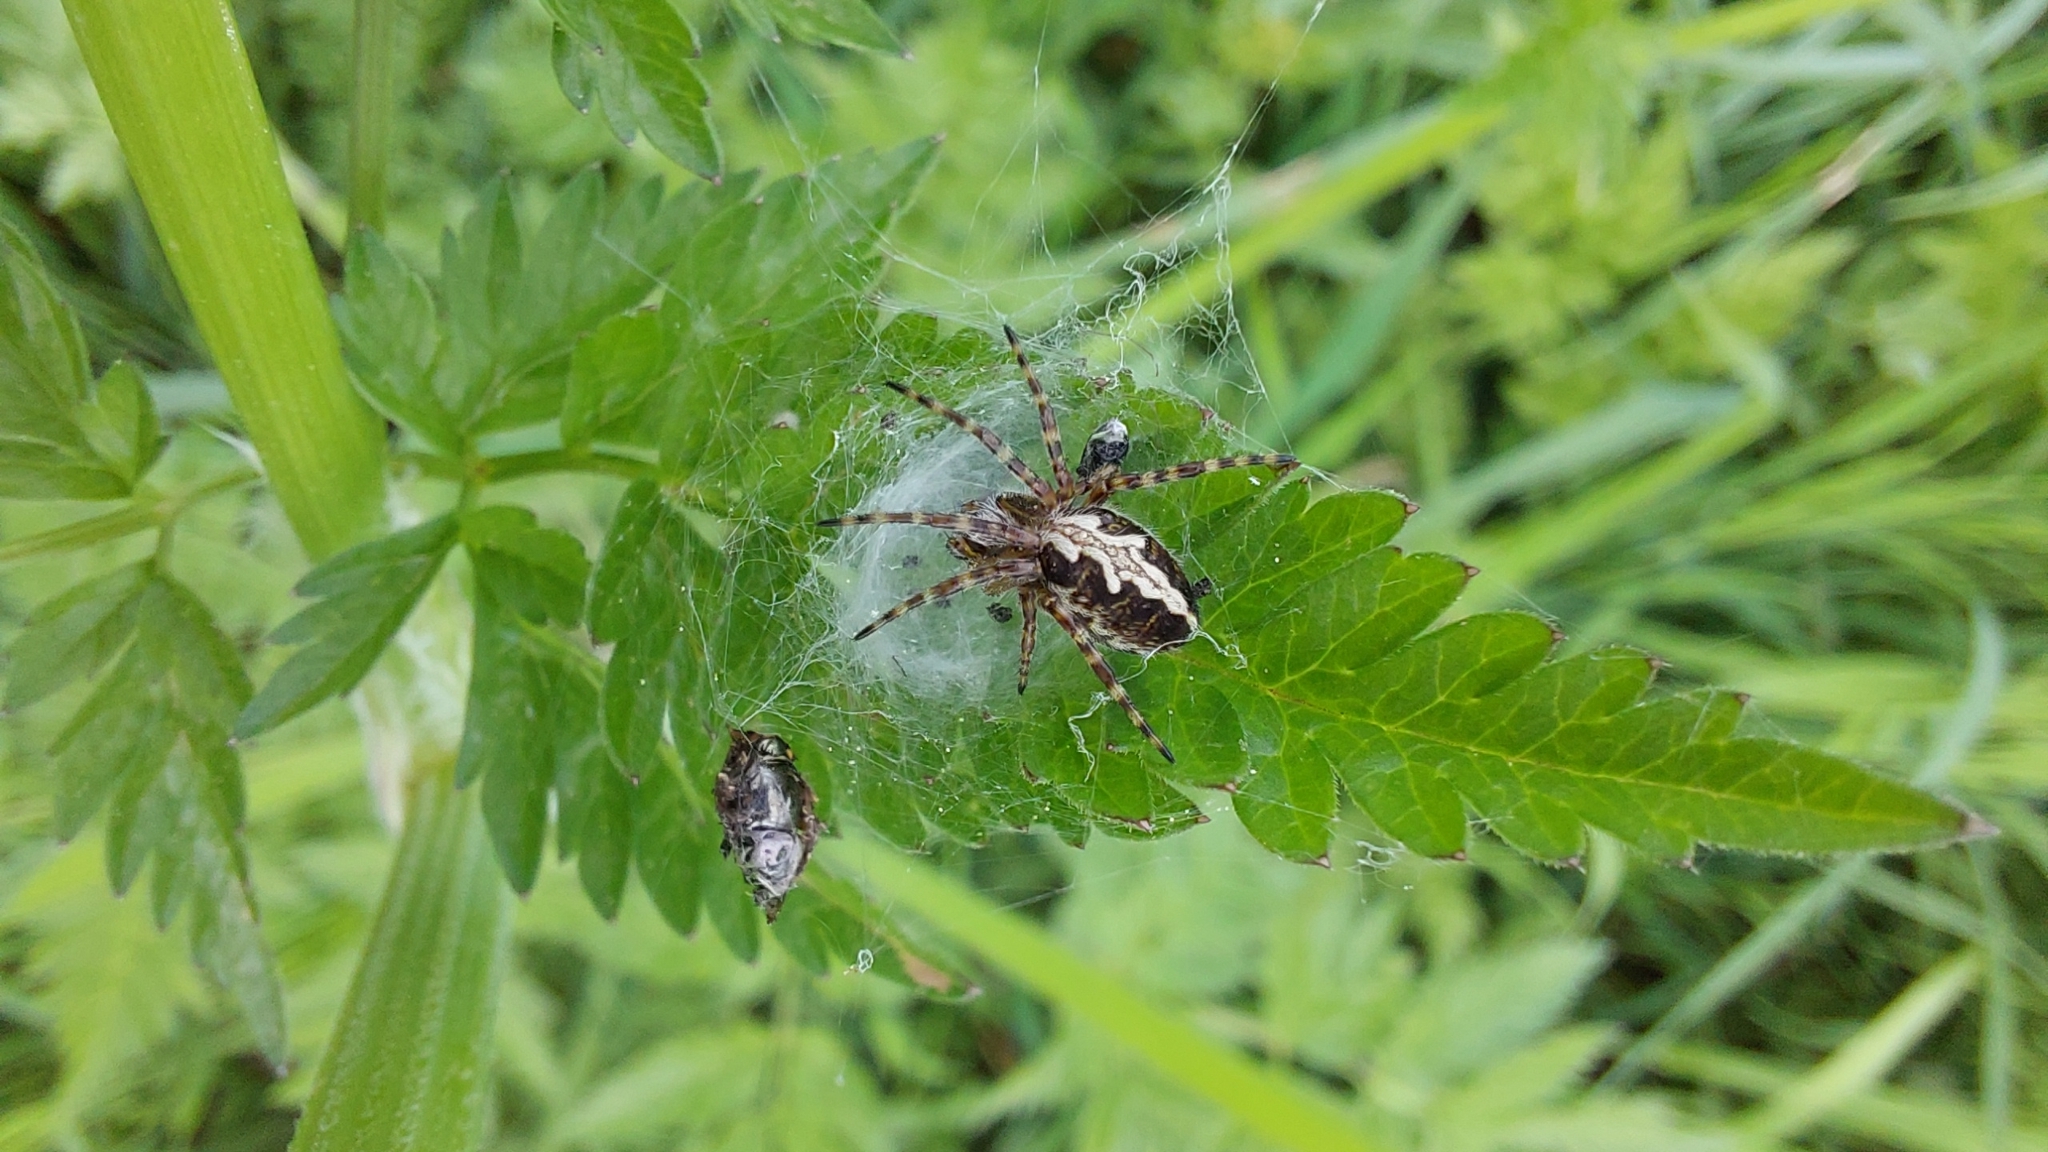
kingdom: Animalia
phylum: Arthropoda
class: Arachnida
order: Araneae
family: Araneidae
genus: Aculepeira
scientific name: Aculepeira ceropegia
